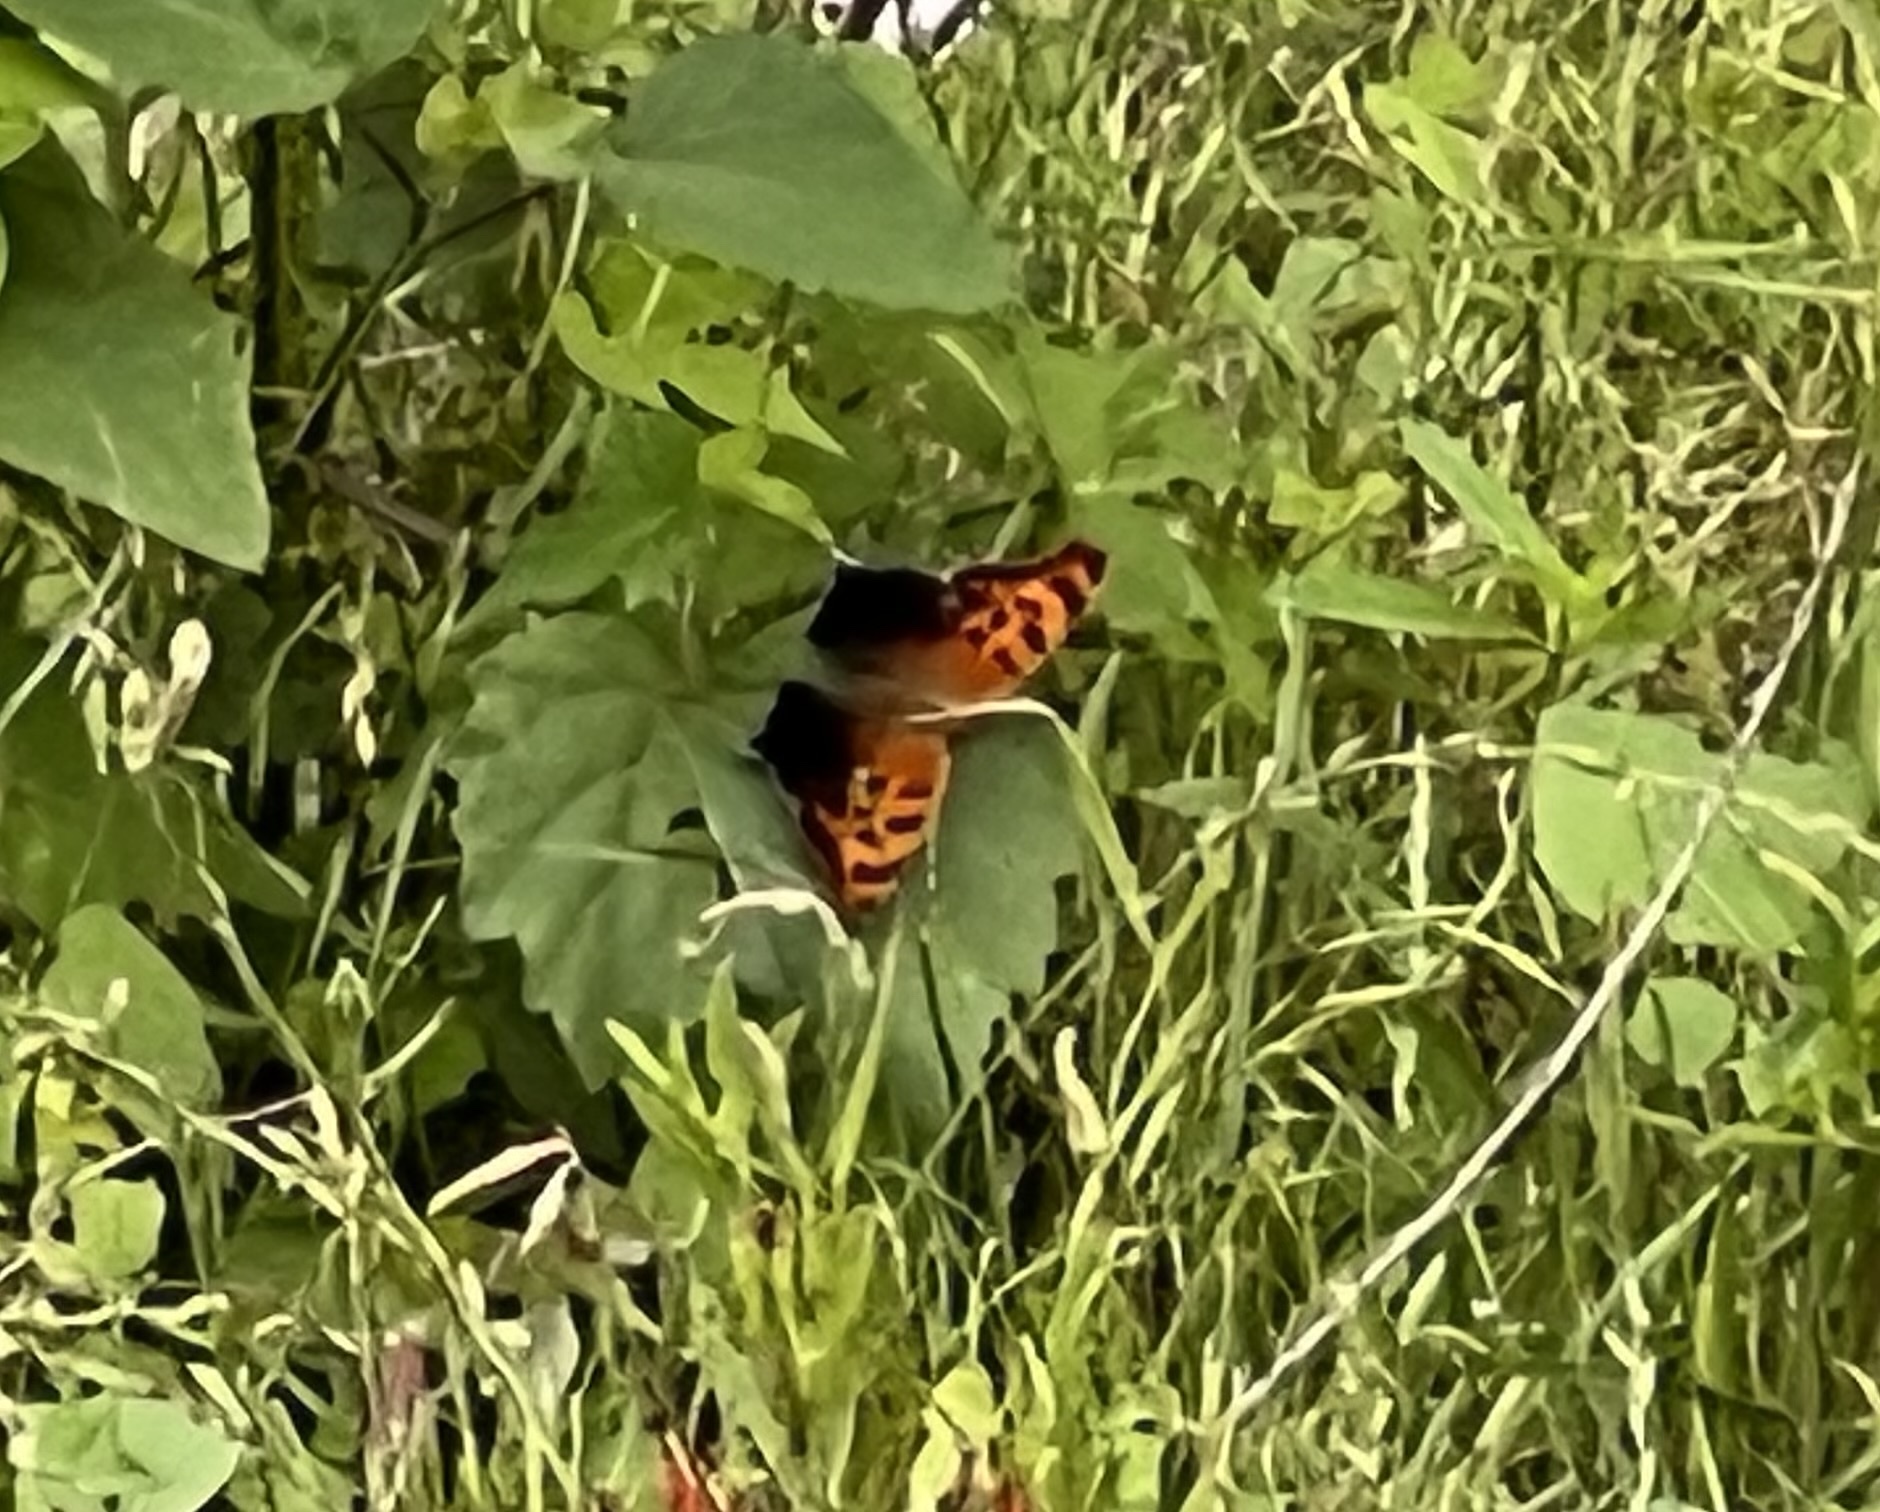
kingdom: Animalia
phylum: Arthropoda
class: Insecta
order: Lepidoptera
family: Nymphalidae
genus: Polygonia
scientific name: Polygonia interrogationis
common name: Question mark
